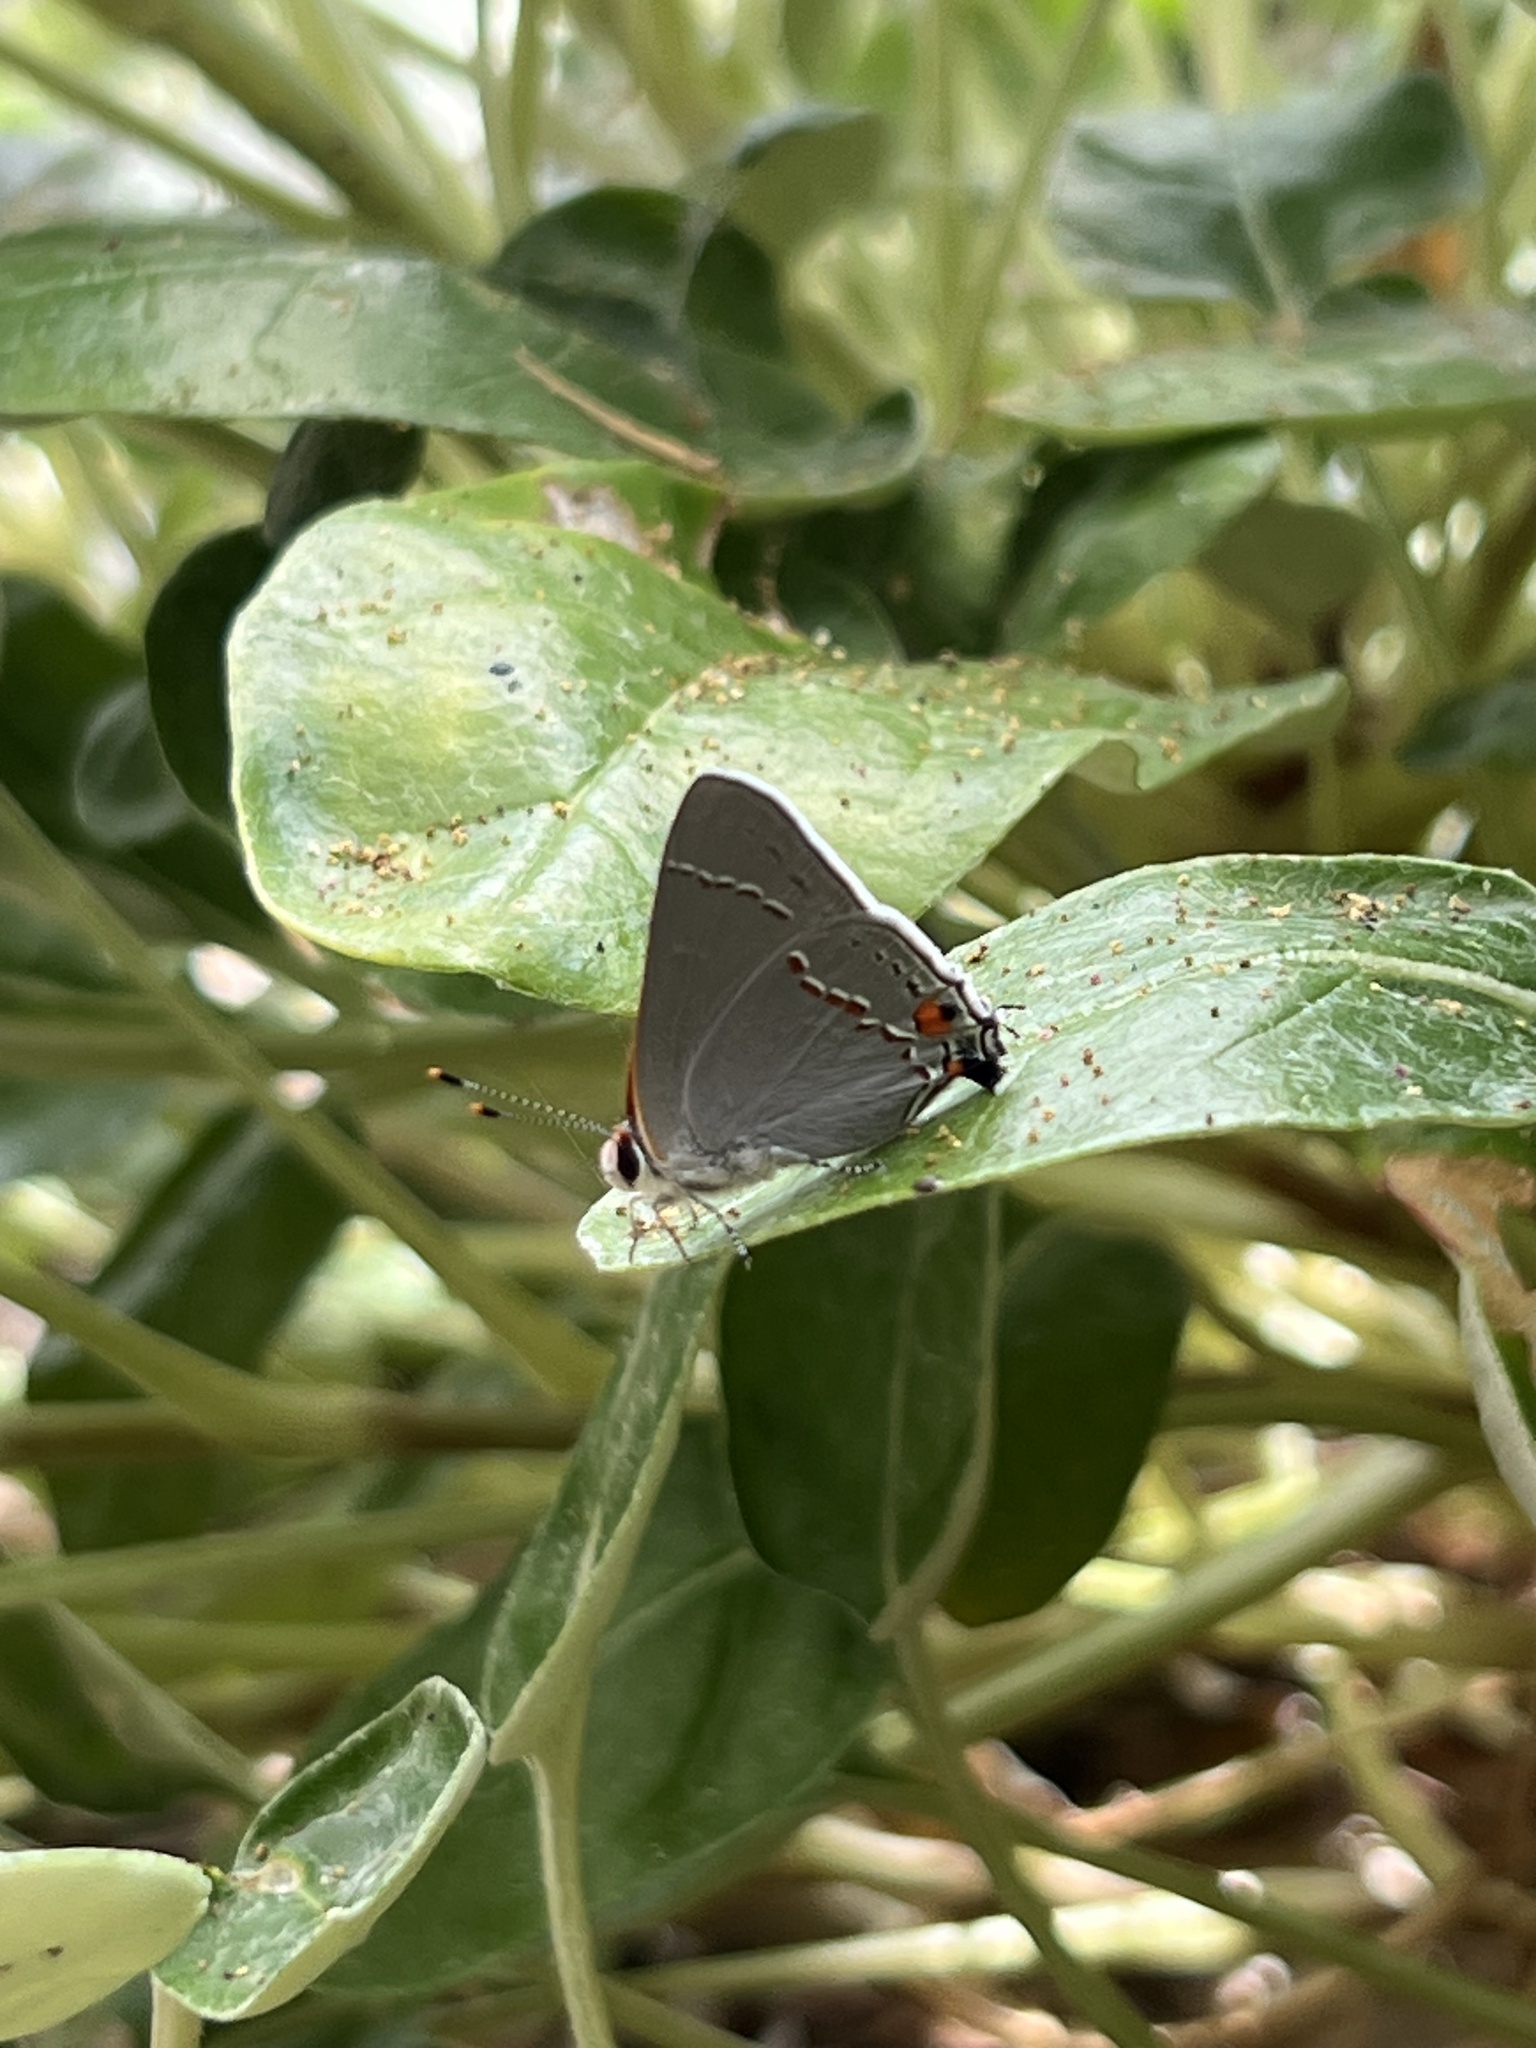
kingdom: Animalia
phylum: Arthropoda
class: Insecta
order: Lepidoptera
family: Lycaenidae
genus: Strymon
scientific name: Strymon melinus
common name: Gray hairstreak
